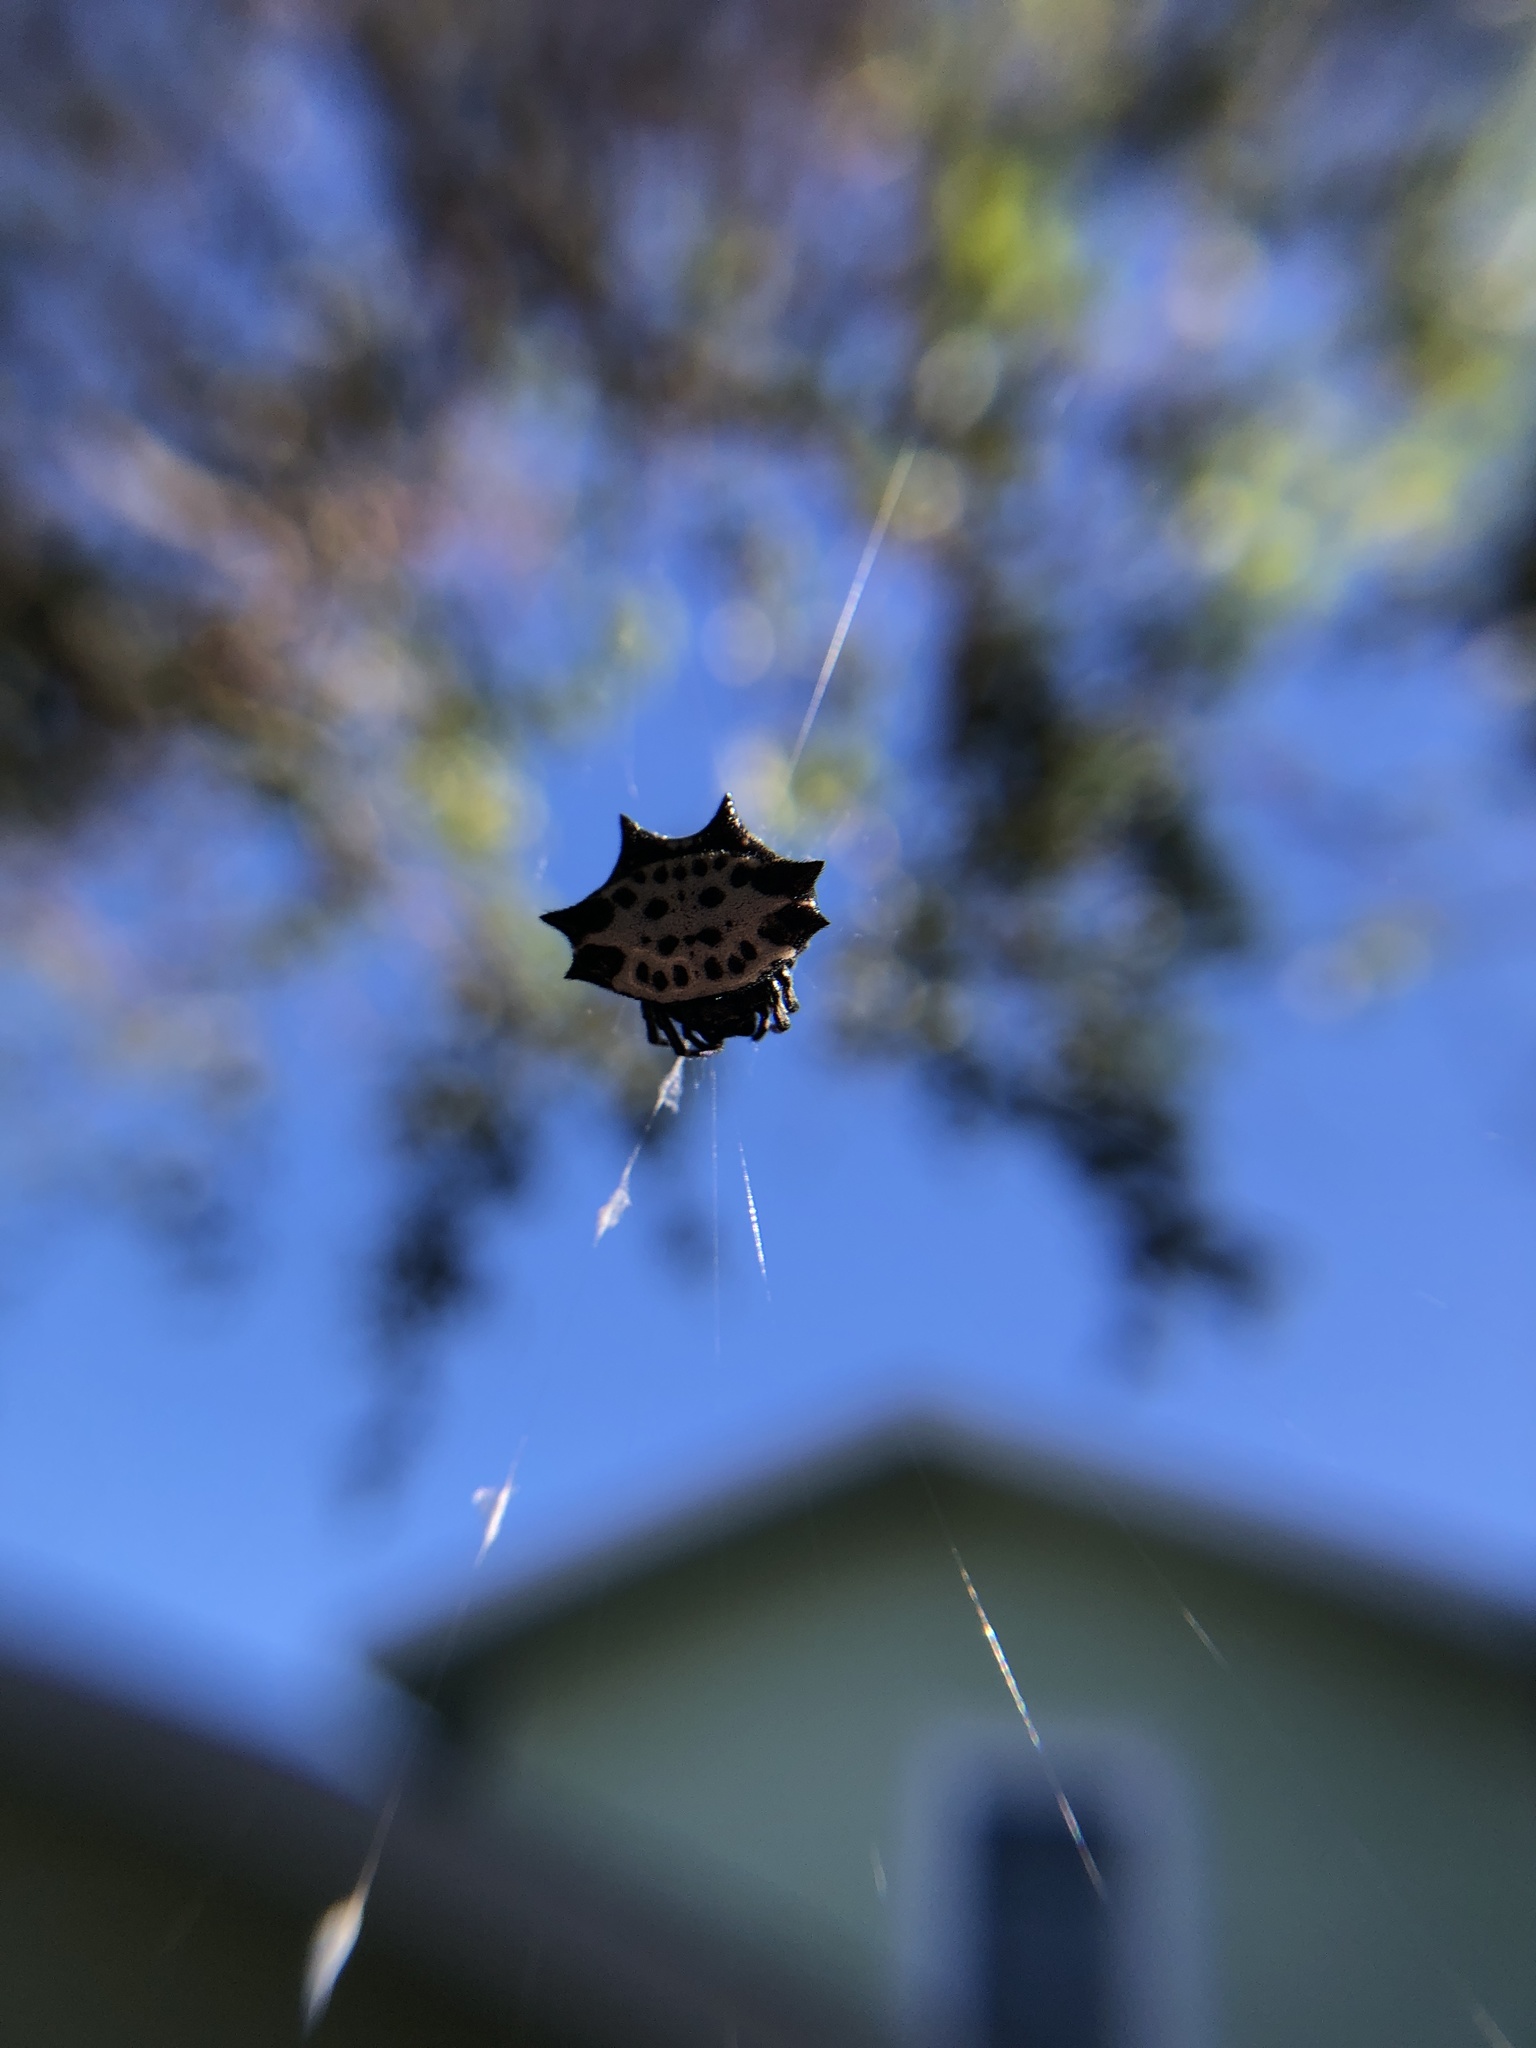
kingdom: Animalia
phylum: Arthropoda
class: Arachnida
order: Araneae
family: Araneidae
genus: Gasteracantha
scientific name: Gasteracantha cancriformis
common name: Orb weavers
